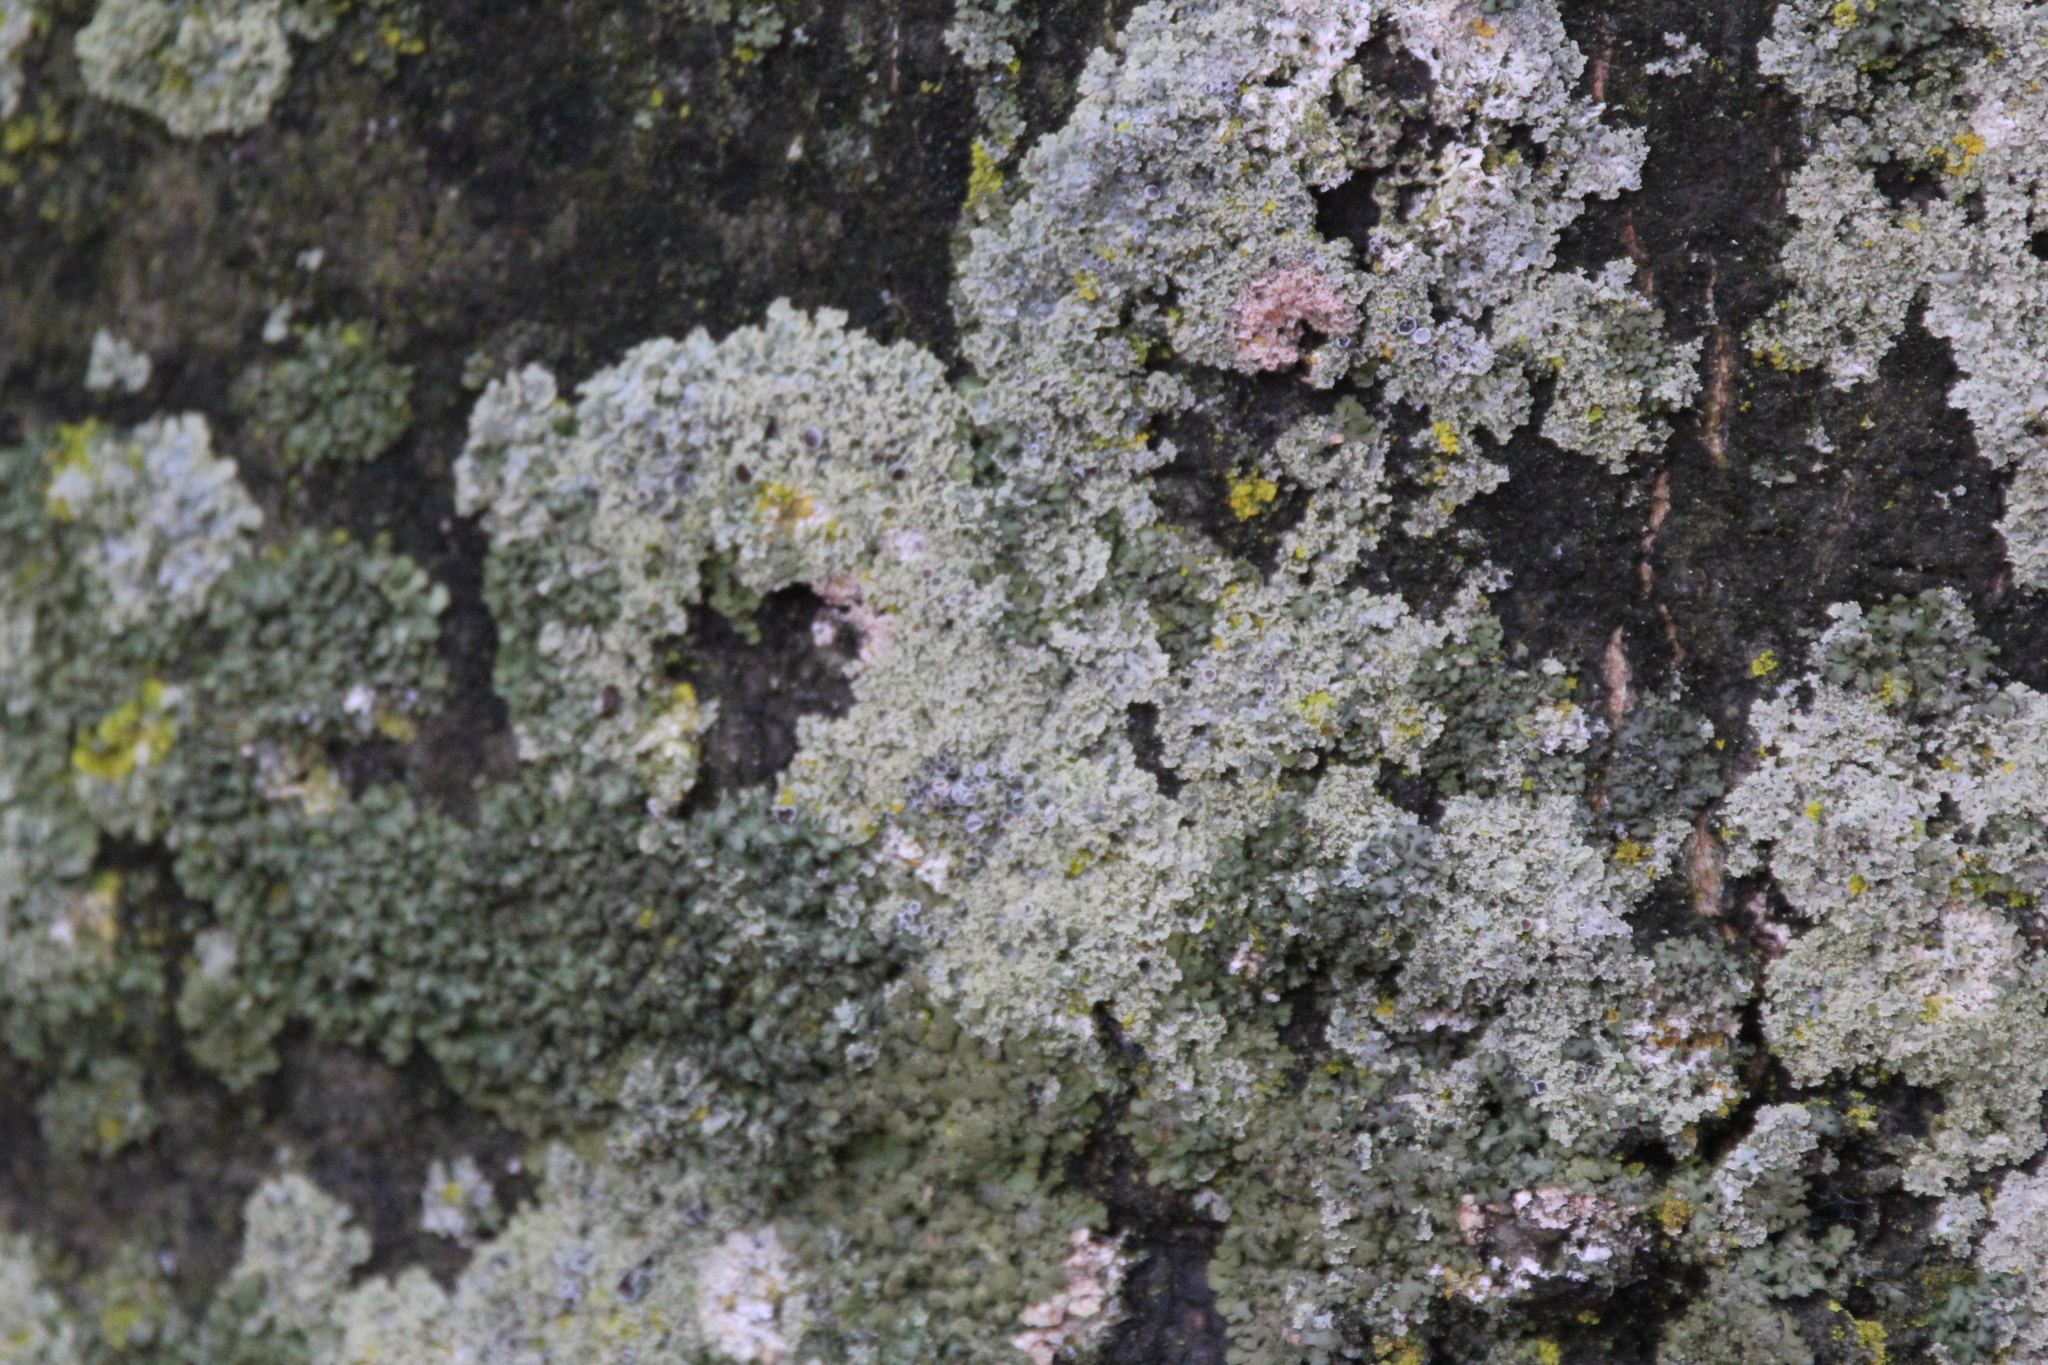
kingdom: Fungi
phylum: Ascomycota
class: Lecanoromycetes
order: Caliciales
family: Physciaceae
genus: Physcia
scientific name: Physcia millegrana
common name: Rosette lichen
